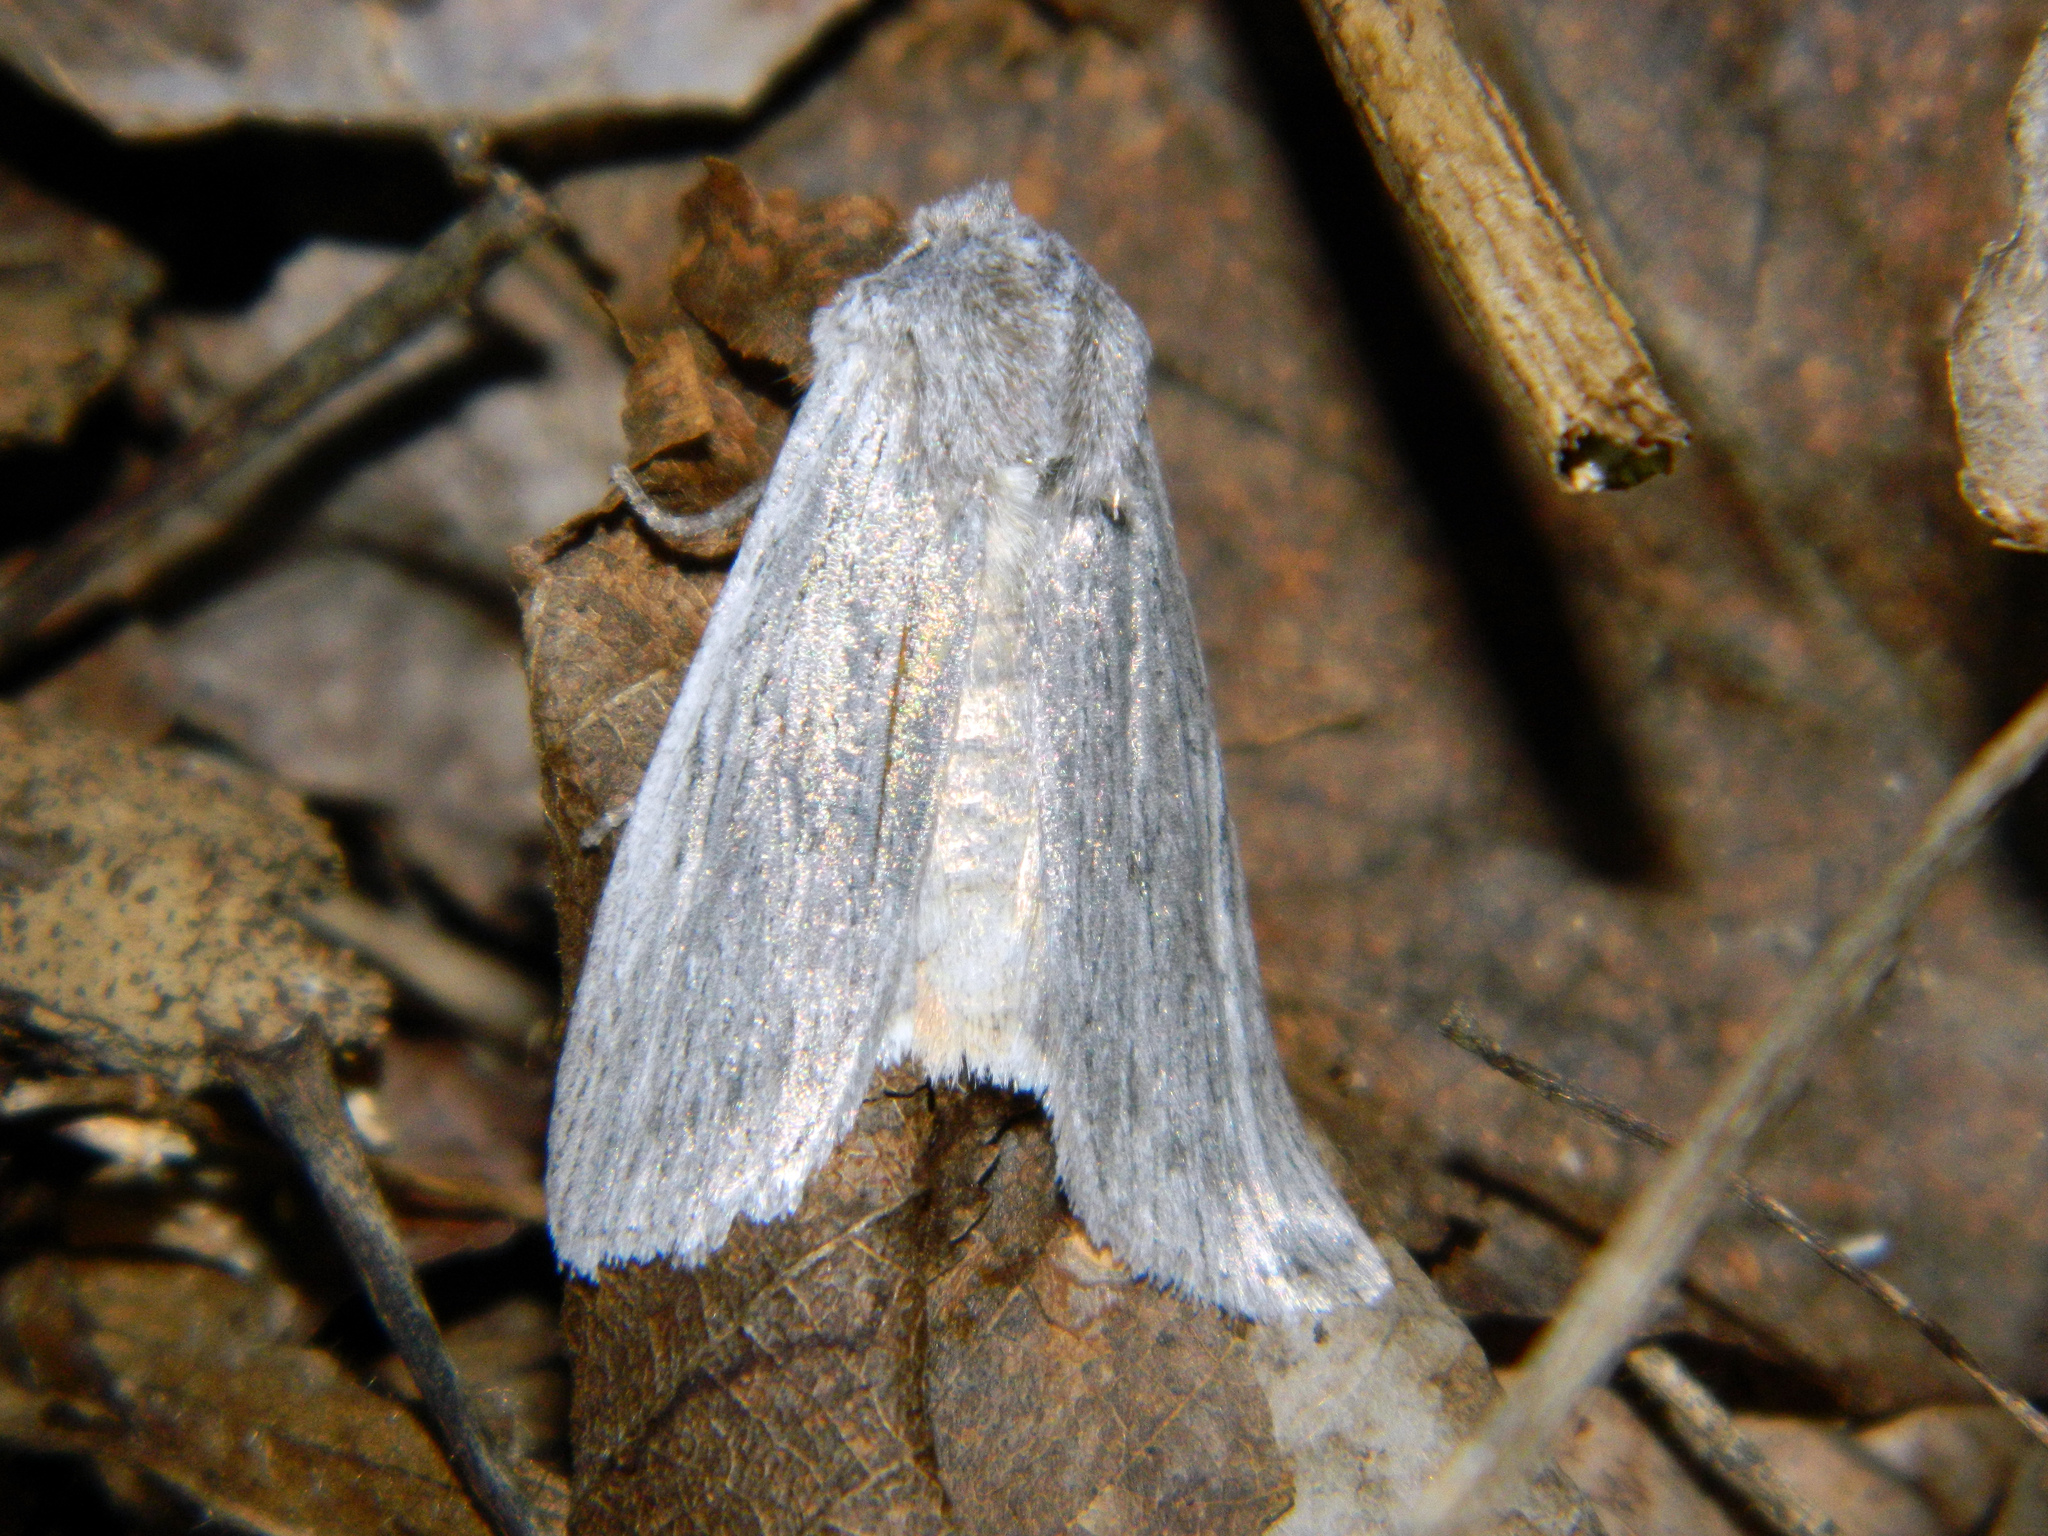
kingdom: Animalia
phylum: Arthropoda
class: Insecta
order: Lepidoptera
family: Noctuidae
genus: Lithophane
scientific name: Lithophane fagina
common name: Hoary pinion moth
